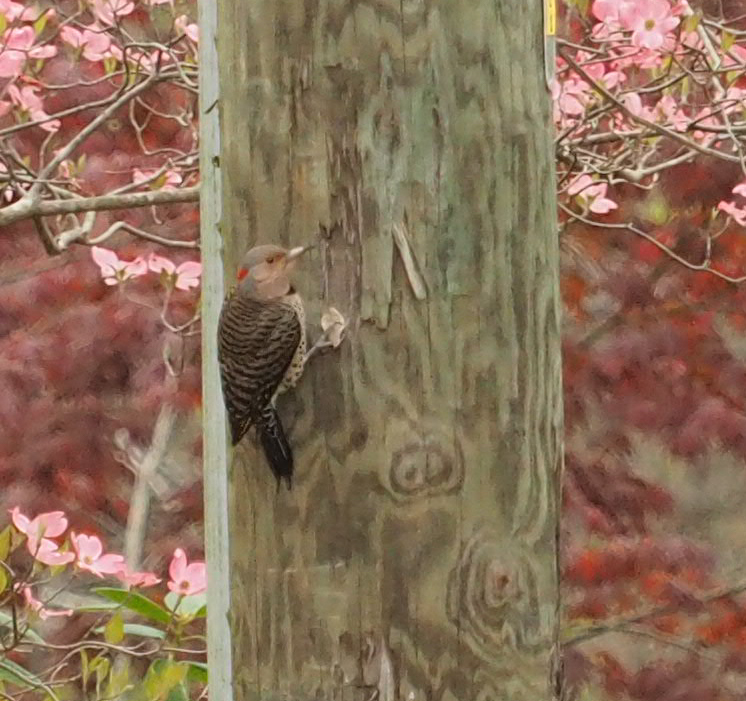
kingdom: Animalia
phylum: Chordata
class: Aves
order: Piciformes
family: Picidae
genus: Colaptes
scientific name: Colaptes auratus
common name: Northern flicker
